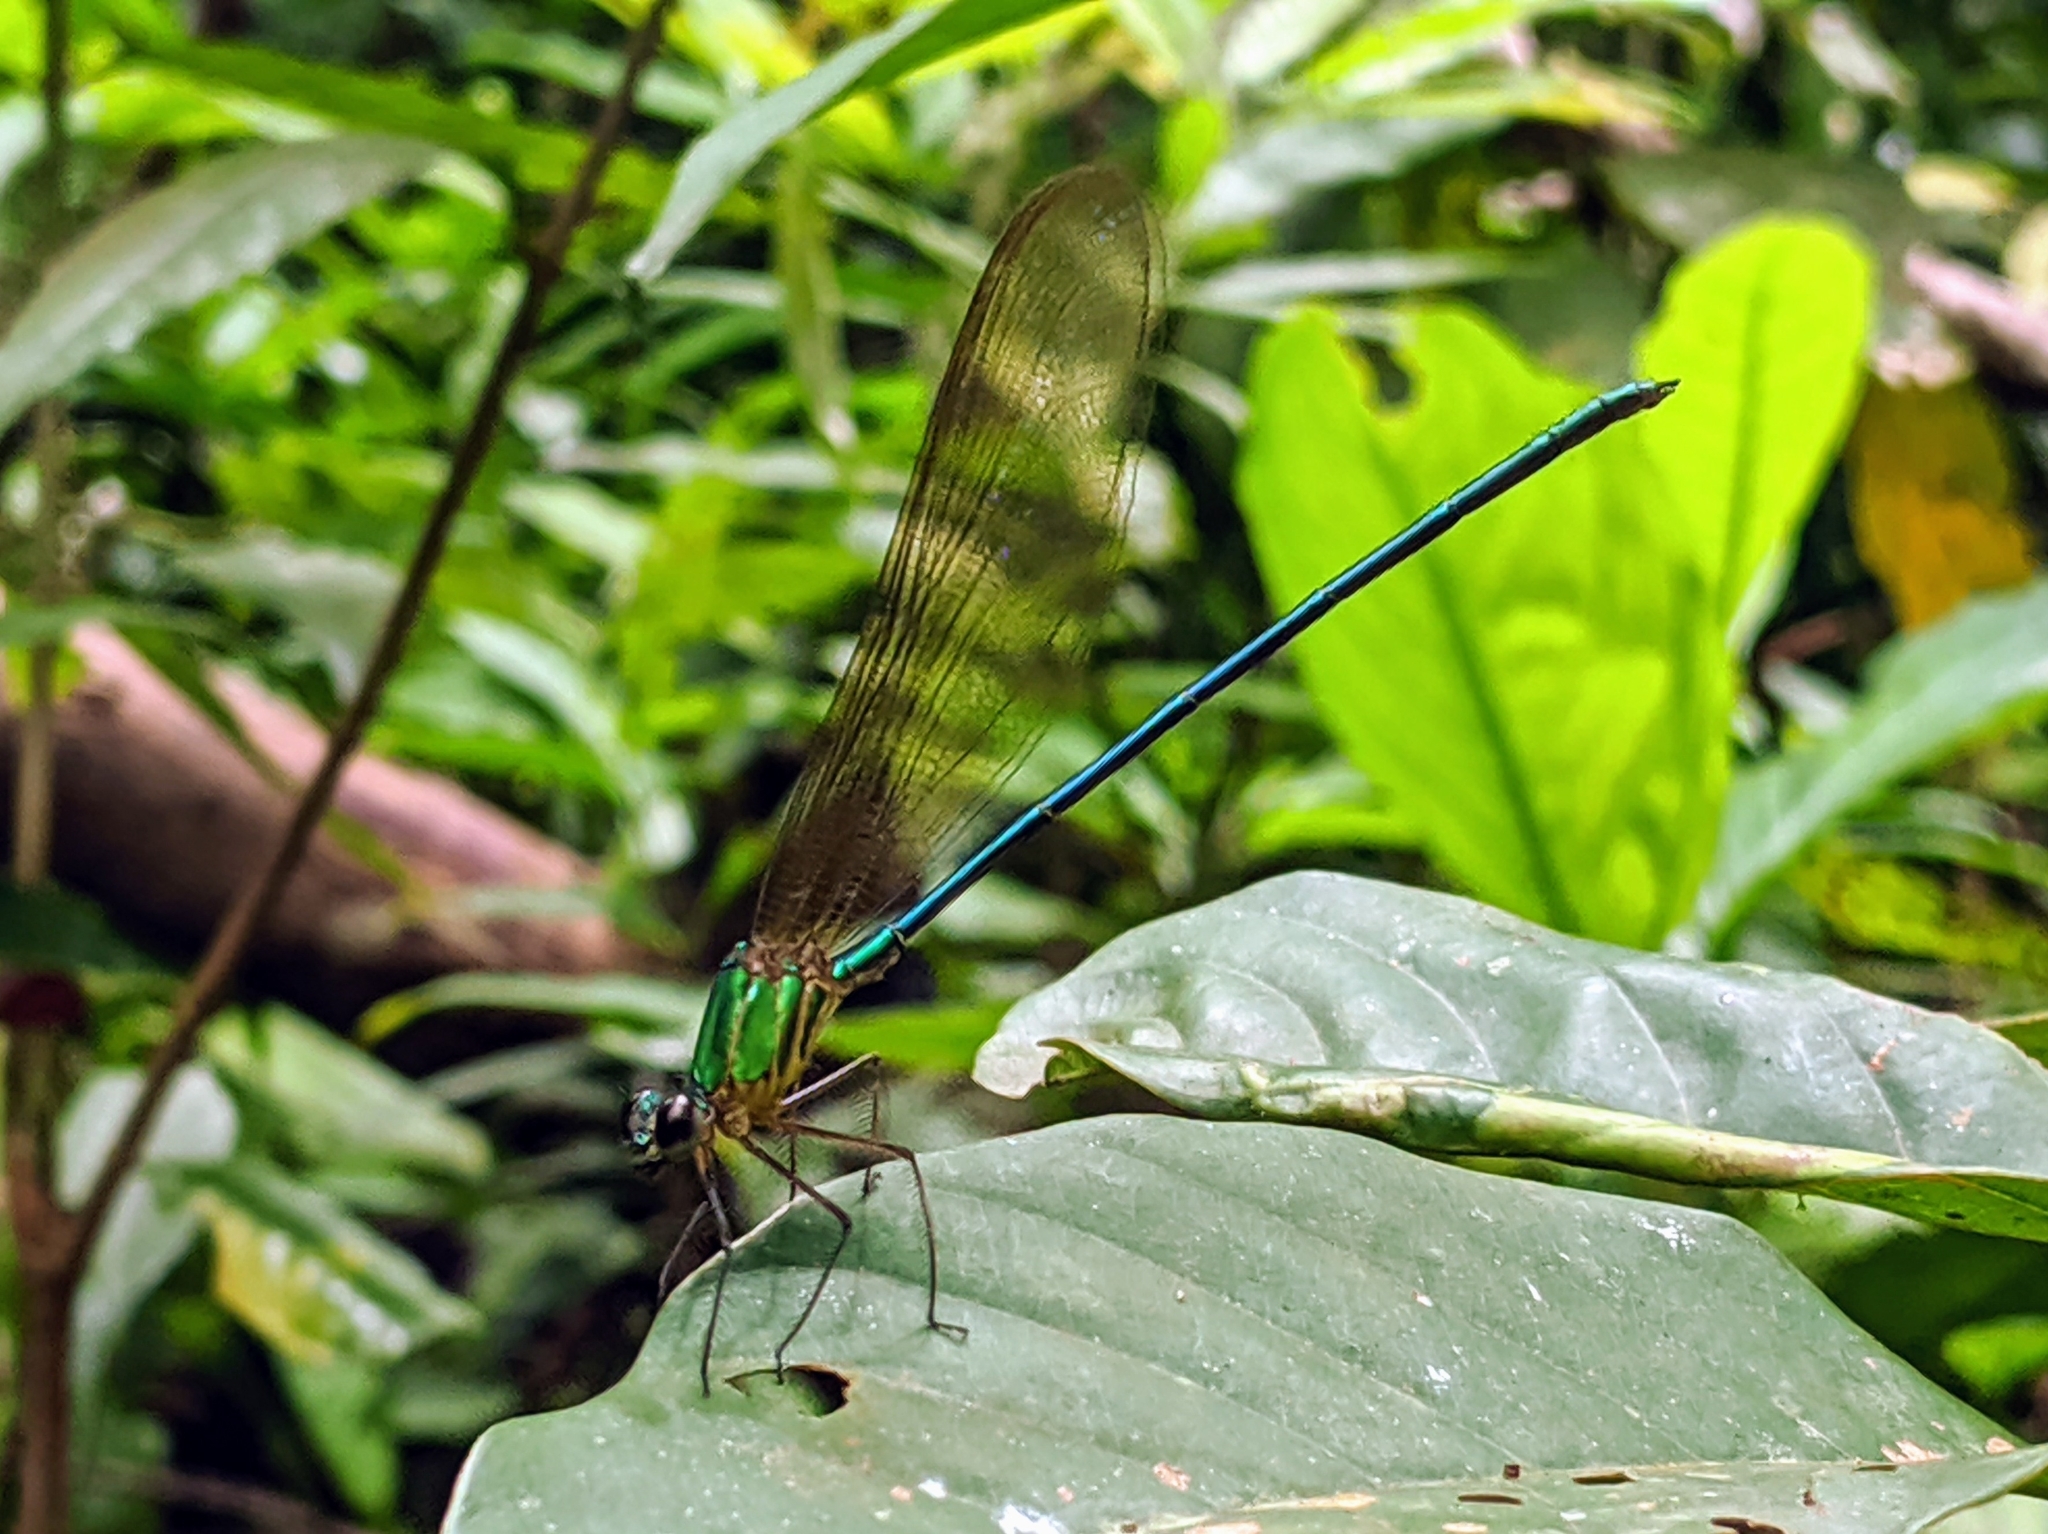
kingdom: Animalia
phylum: Arthropoda
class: Insecta
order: Odonata
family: Calopterygidae
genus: Vestalis
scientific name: Vestalis gracilis
